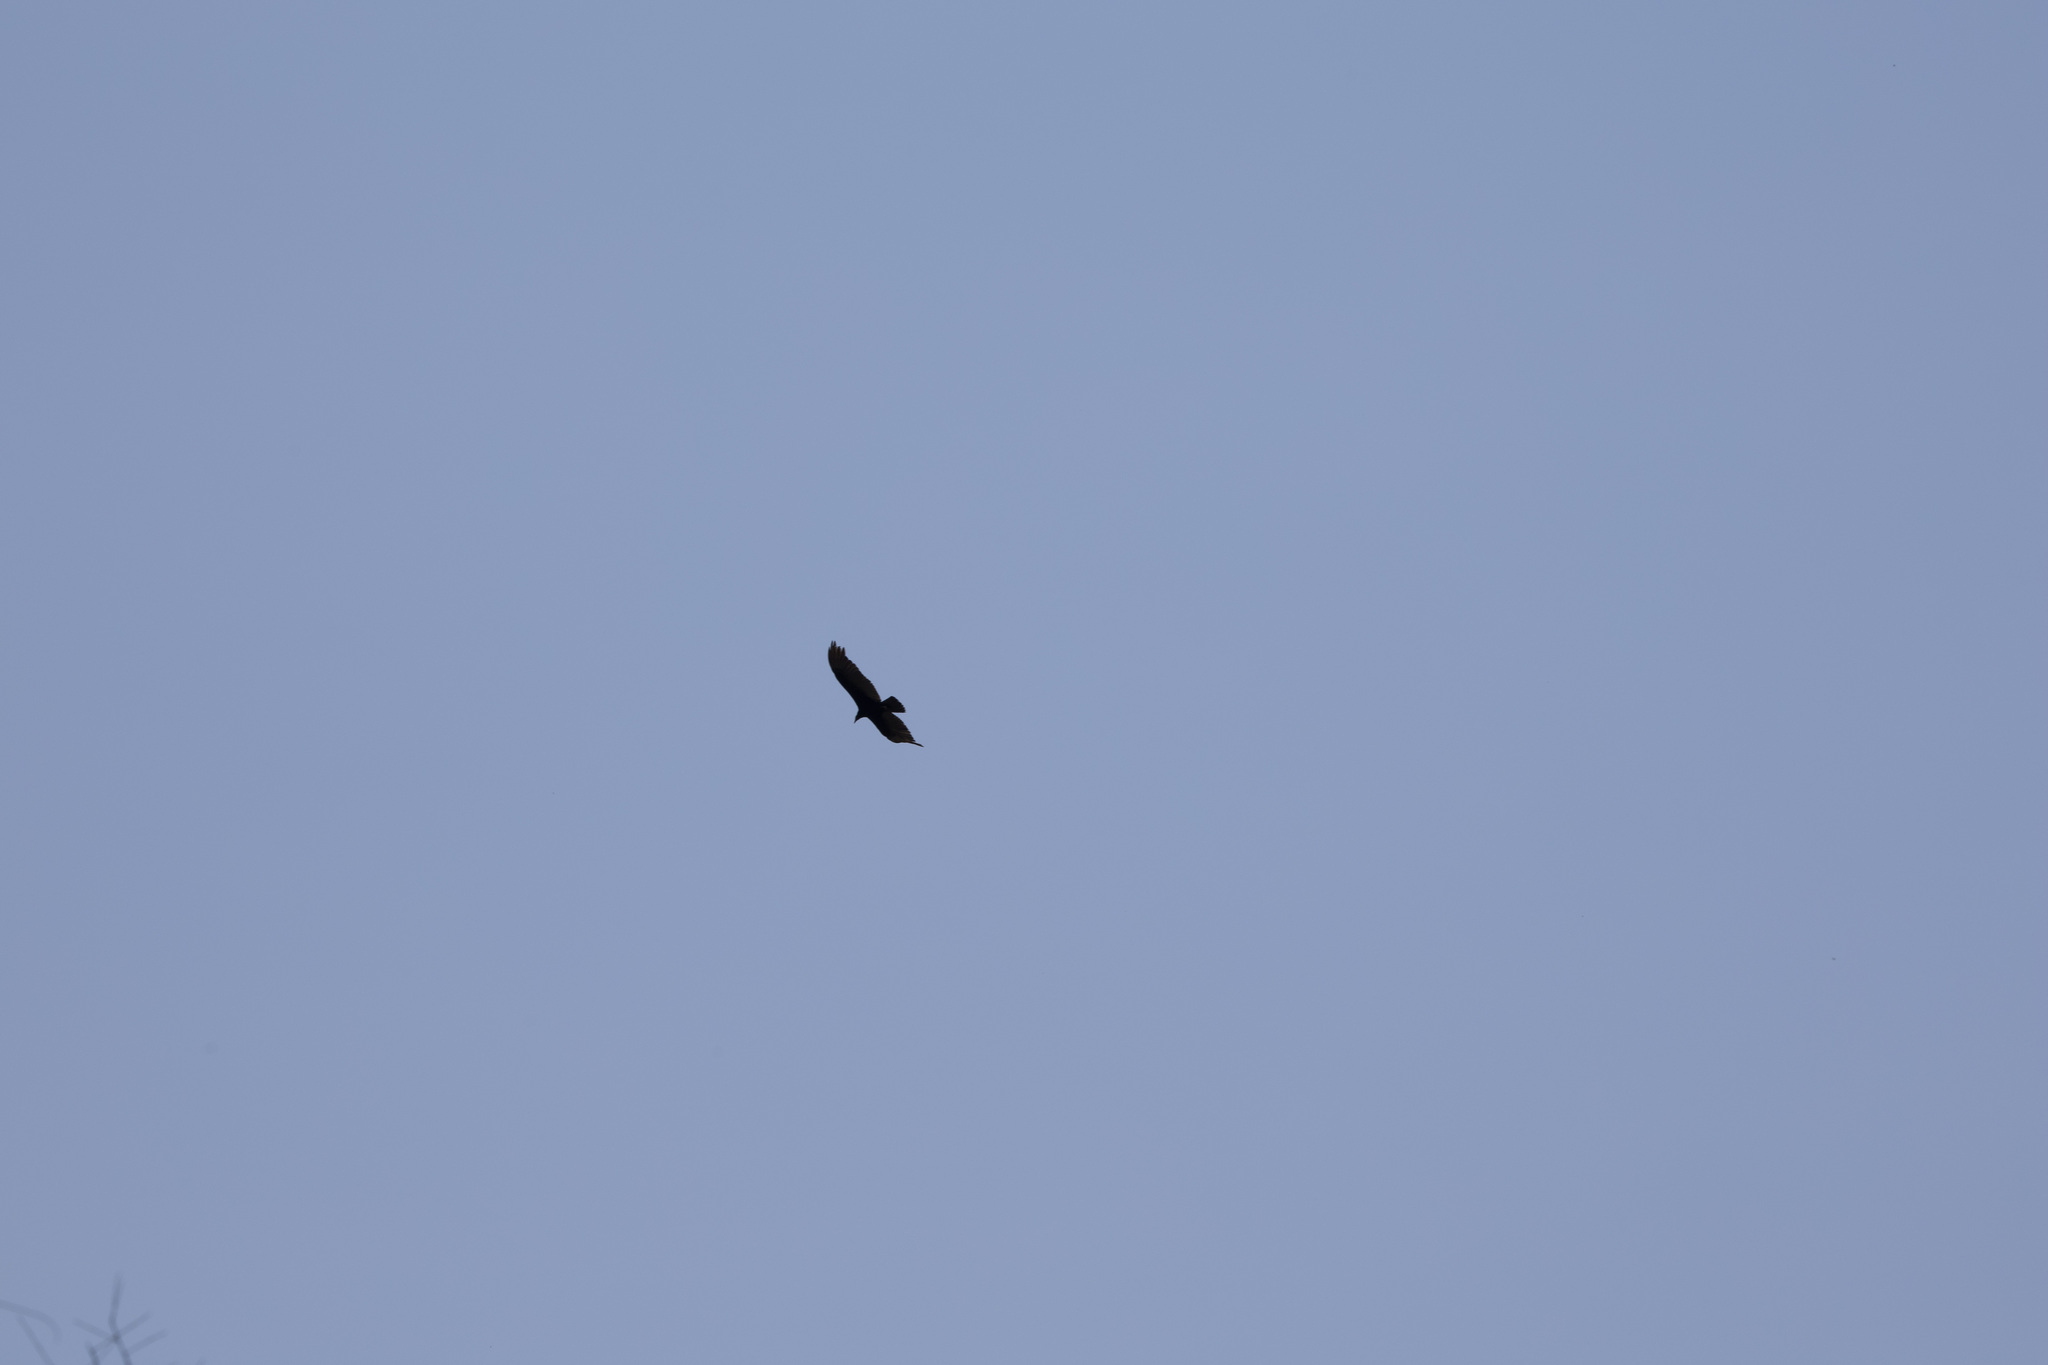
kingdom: Animalia
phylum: Chordata
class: Aves
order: Accipitriformes
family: Cathartidae
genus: Cathartes
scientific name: Cathartes aura
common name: Turkey vulture
